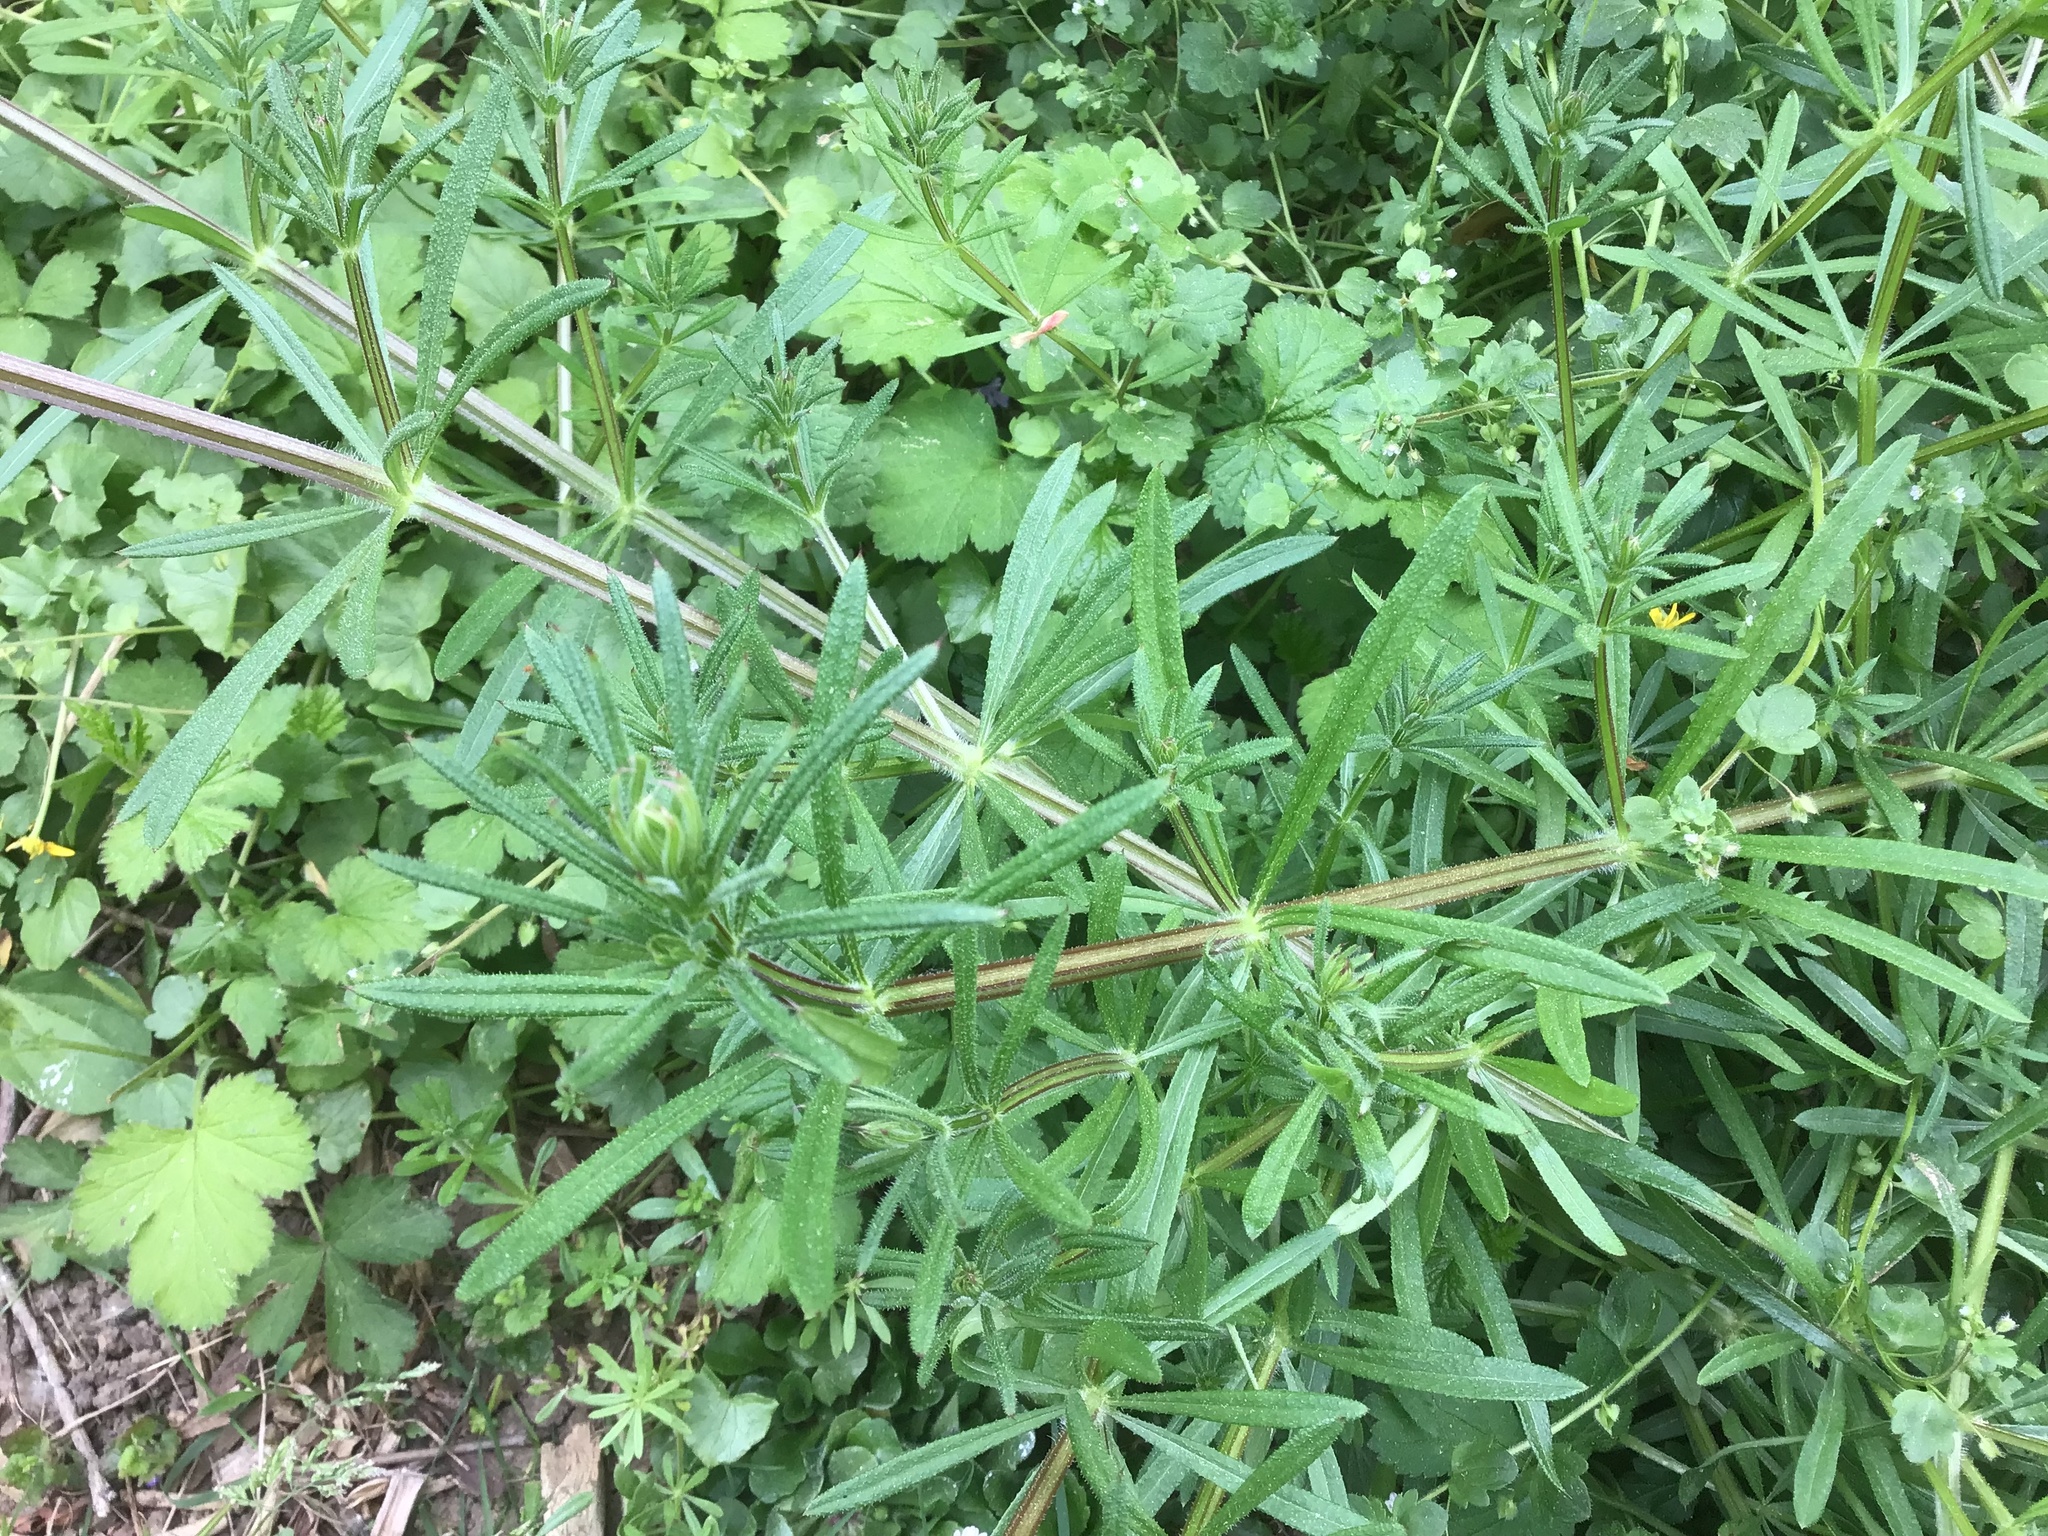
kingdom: Plantae
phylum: Tracheophyta
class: Magnoliopsida
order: Gentianales
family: Rubiaceae
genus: Galium
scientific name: Galium aparine
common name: Cleavers
